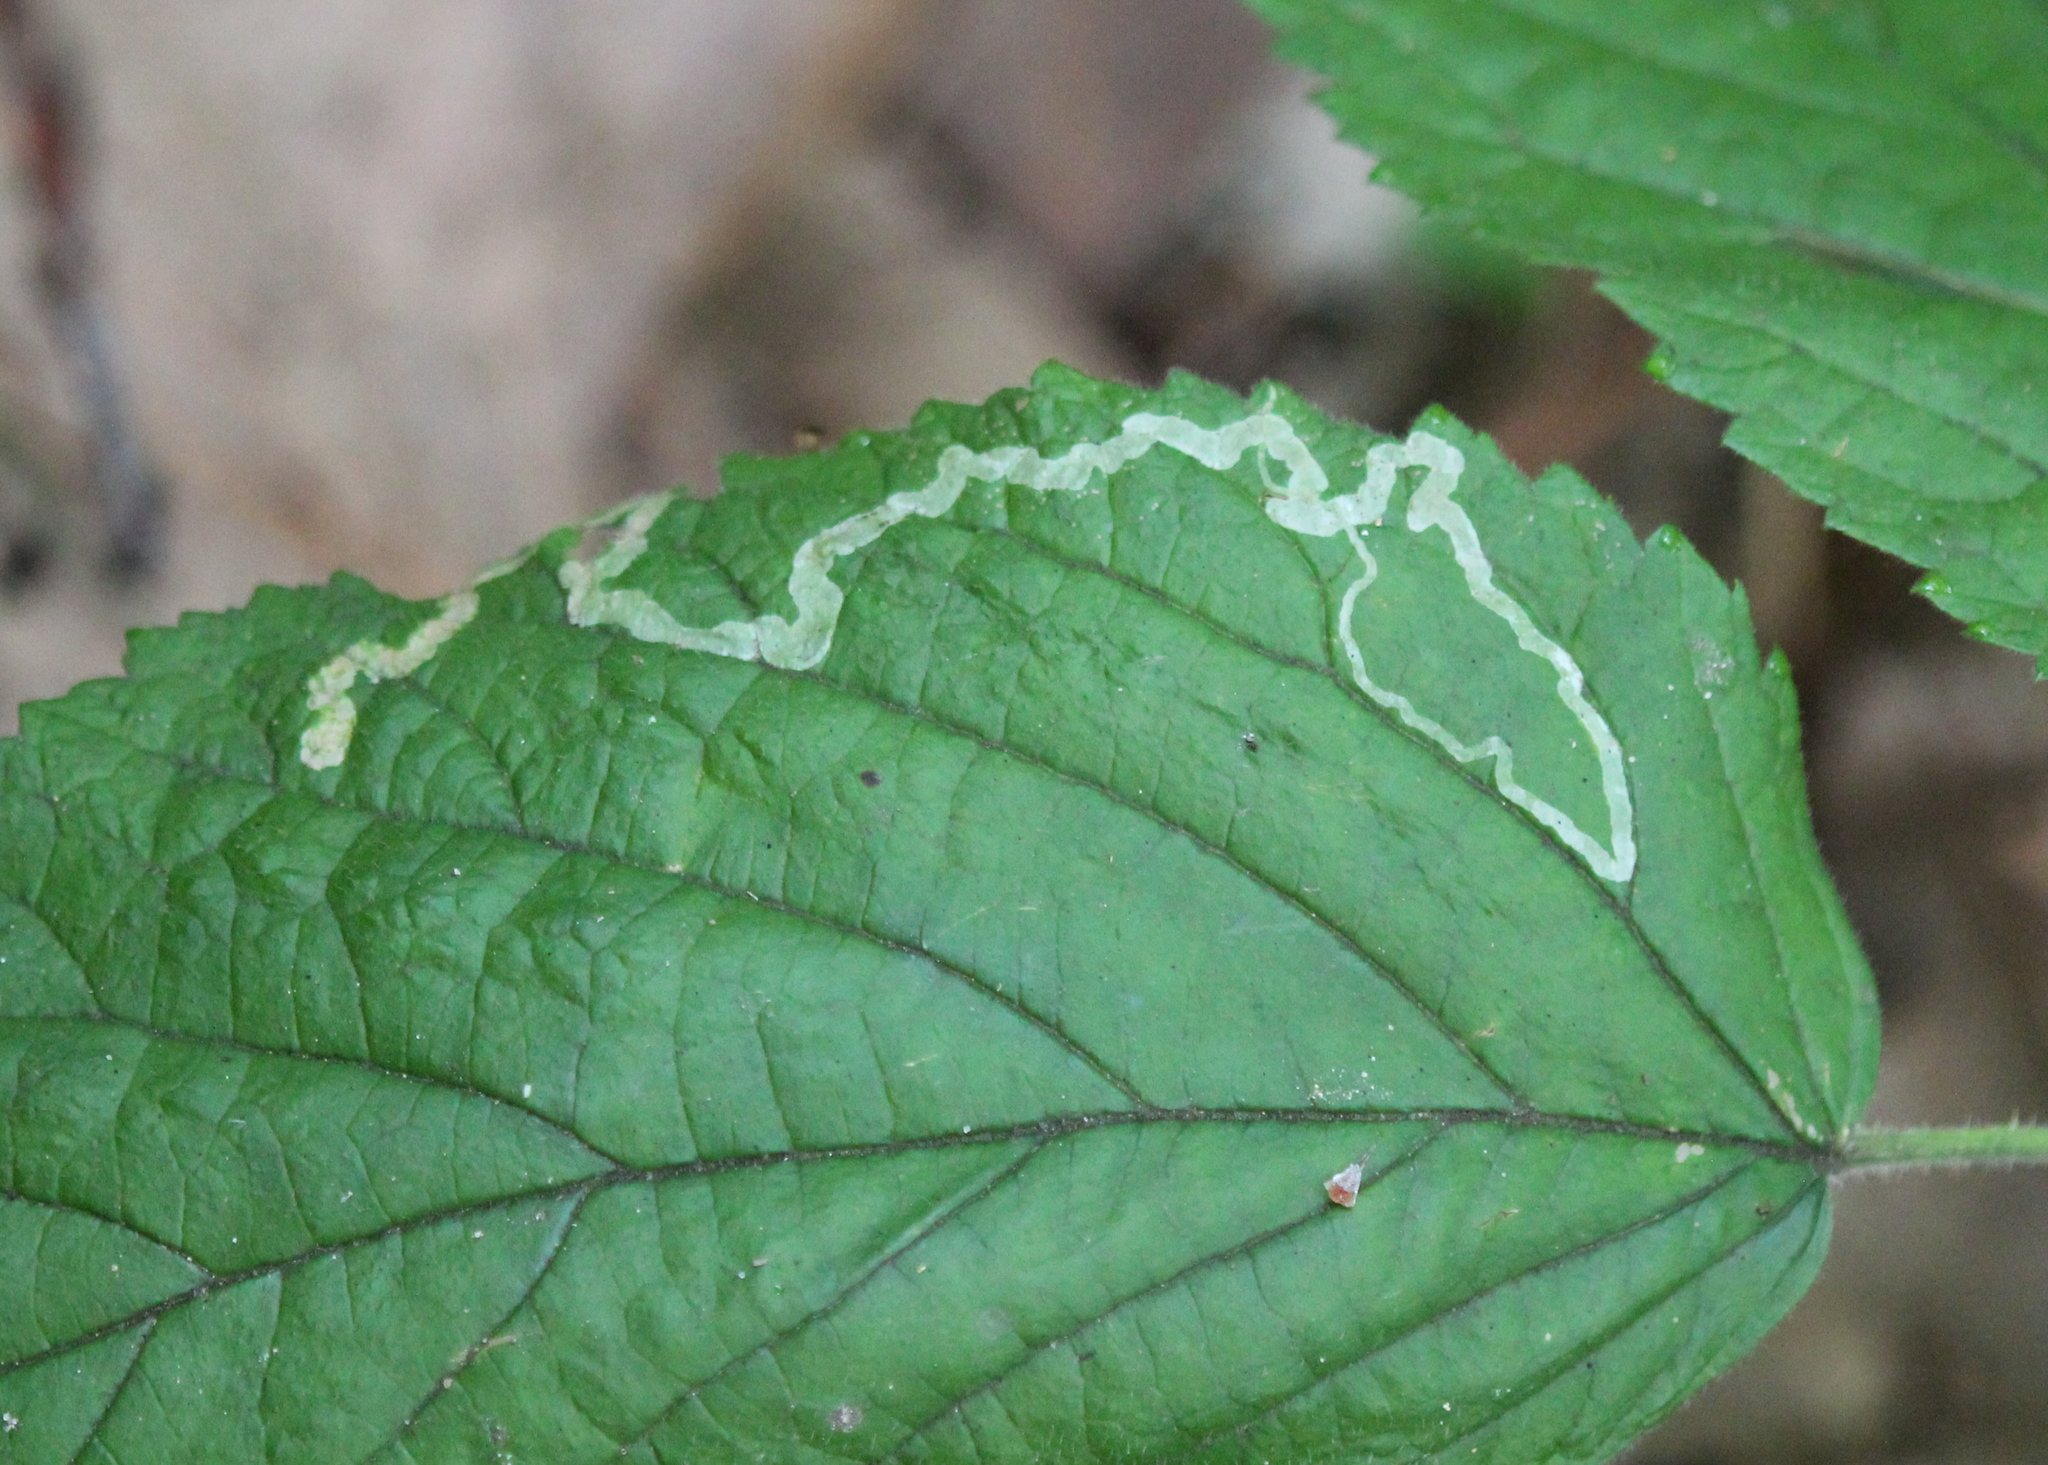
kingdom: Animalia
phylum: Arthropoda
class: Insecta
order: Diptera
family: Agromyzidae
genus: Agromyza
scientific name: Agromyza vockerothi
